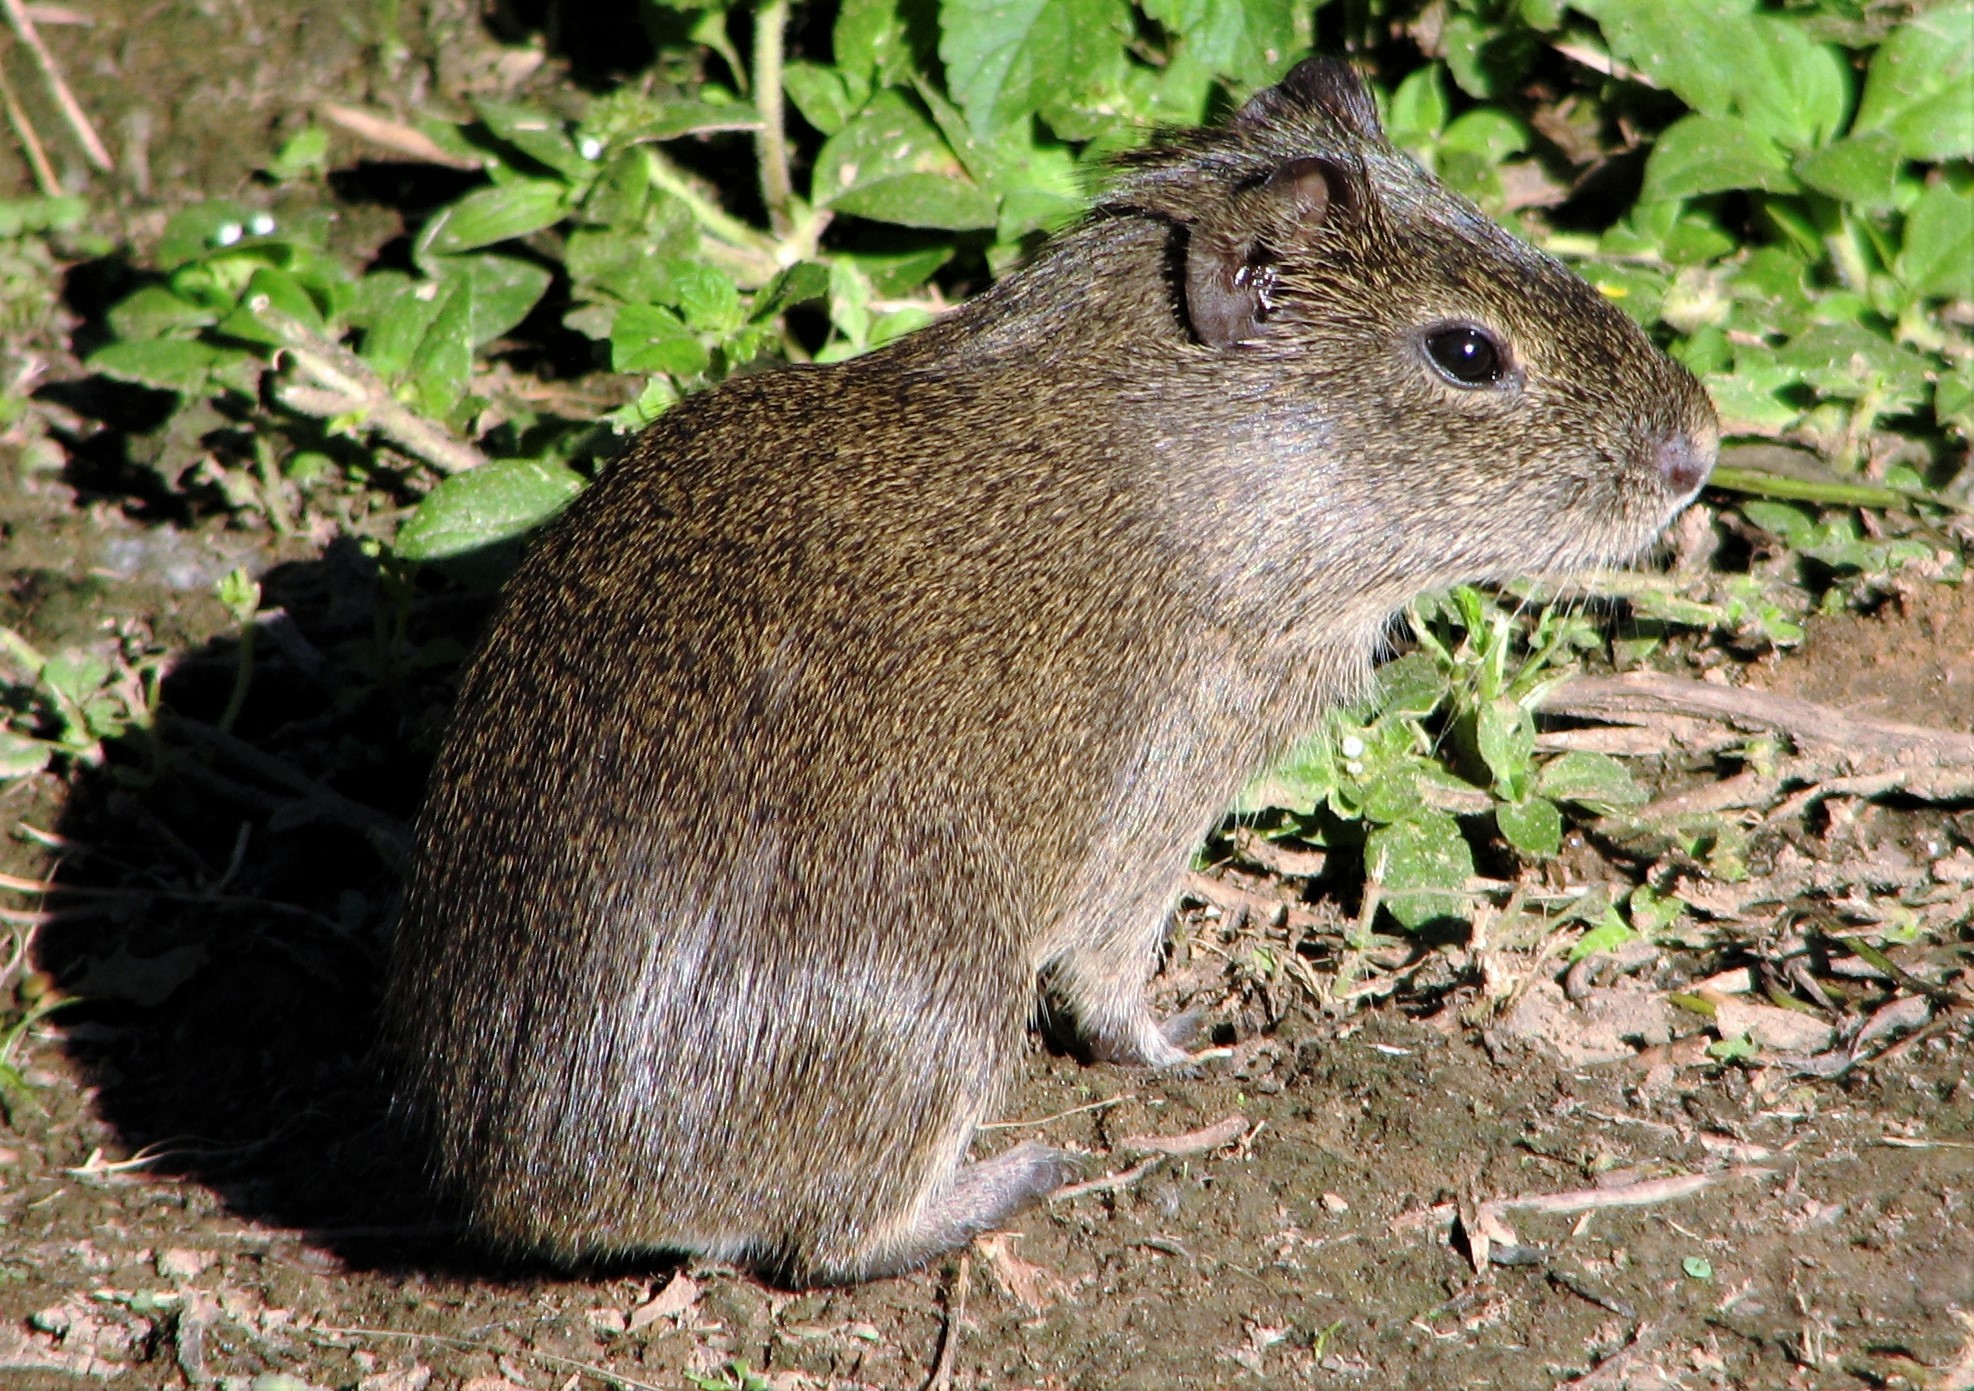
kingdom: Animalia
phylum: Chordata
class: Mammalia
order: Rodentia
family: Caviidae
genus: Cavia
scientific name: Cavia aperea
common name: Brazilian guinea pig
